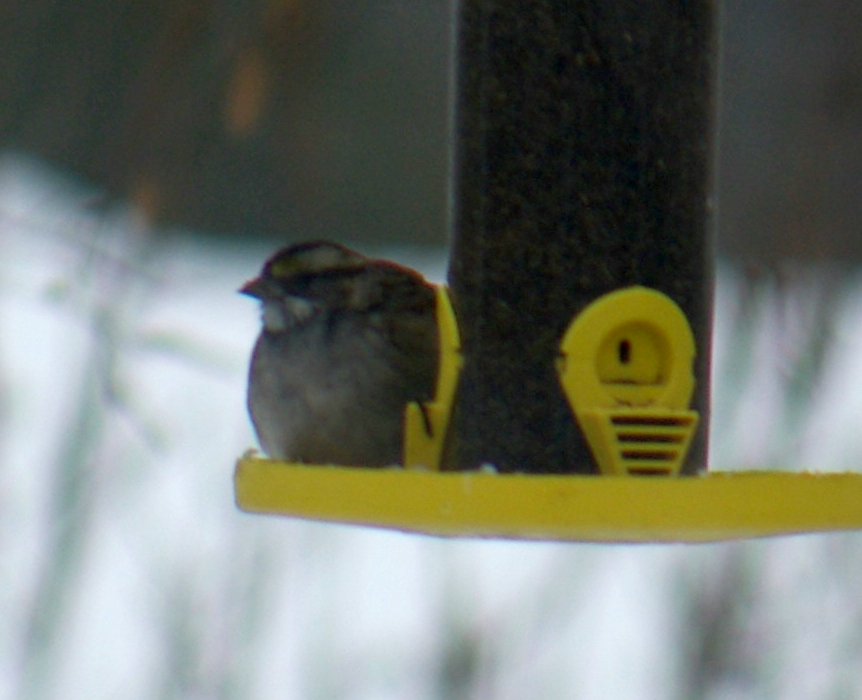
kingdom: Animalia
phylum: Chordata
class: Aves
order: Passeriformes
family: Passerellidae
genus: Zonotrichia
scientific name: Zonotrichia albicollis
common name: White-throated sparrow
